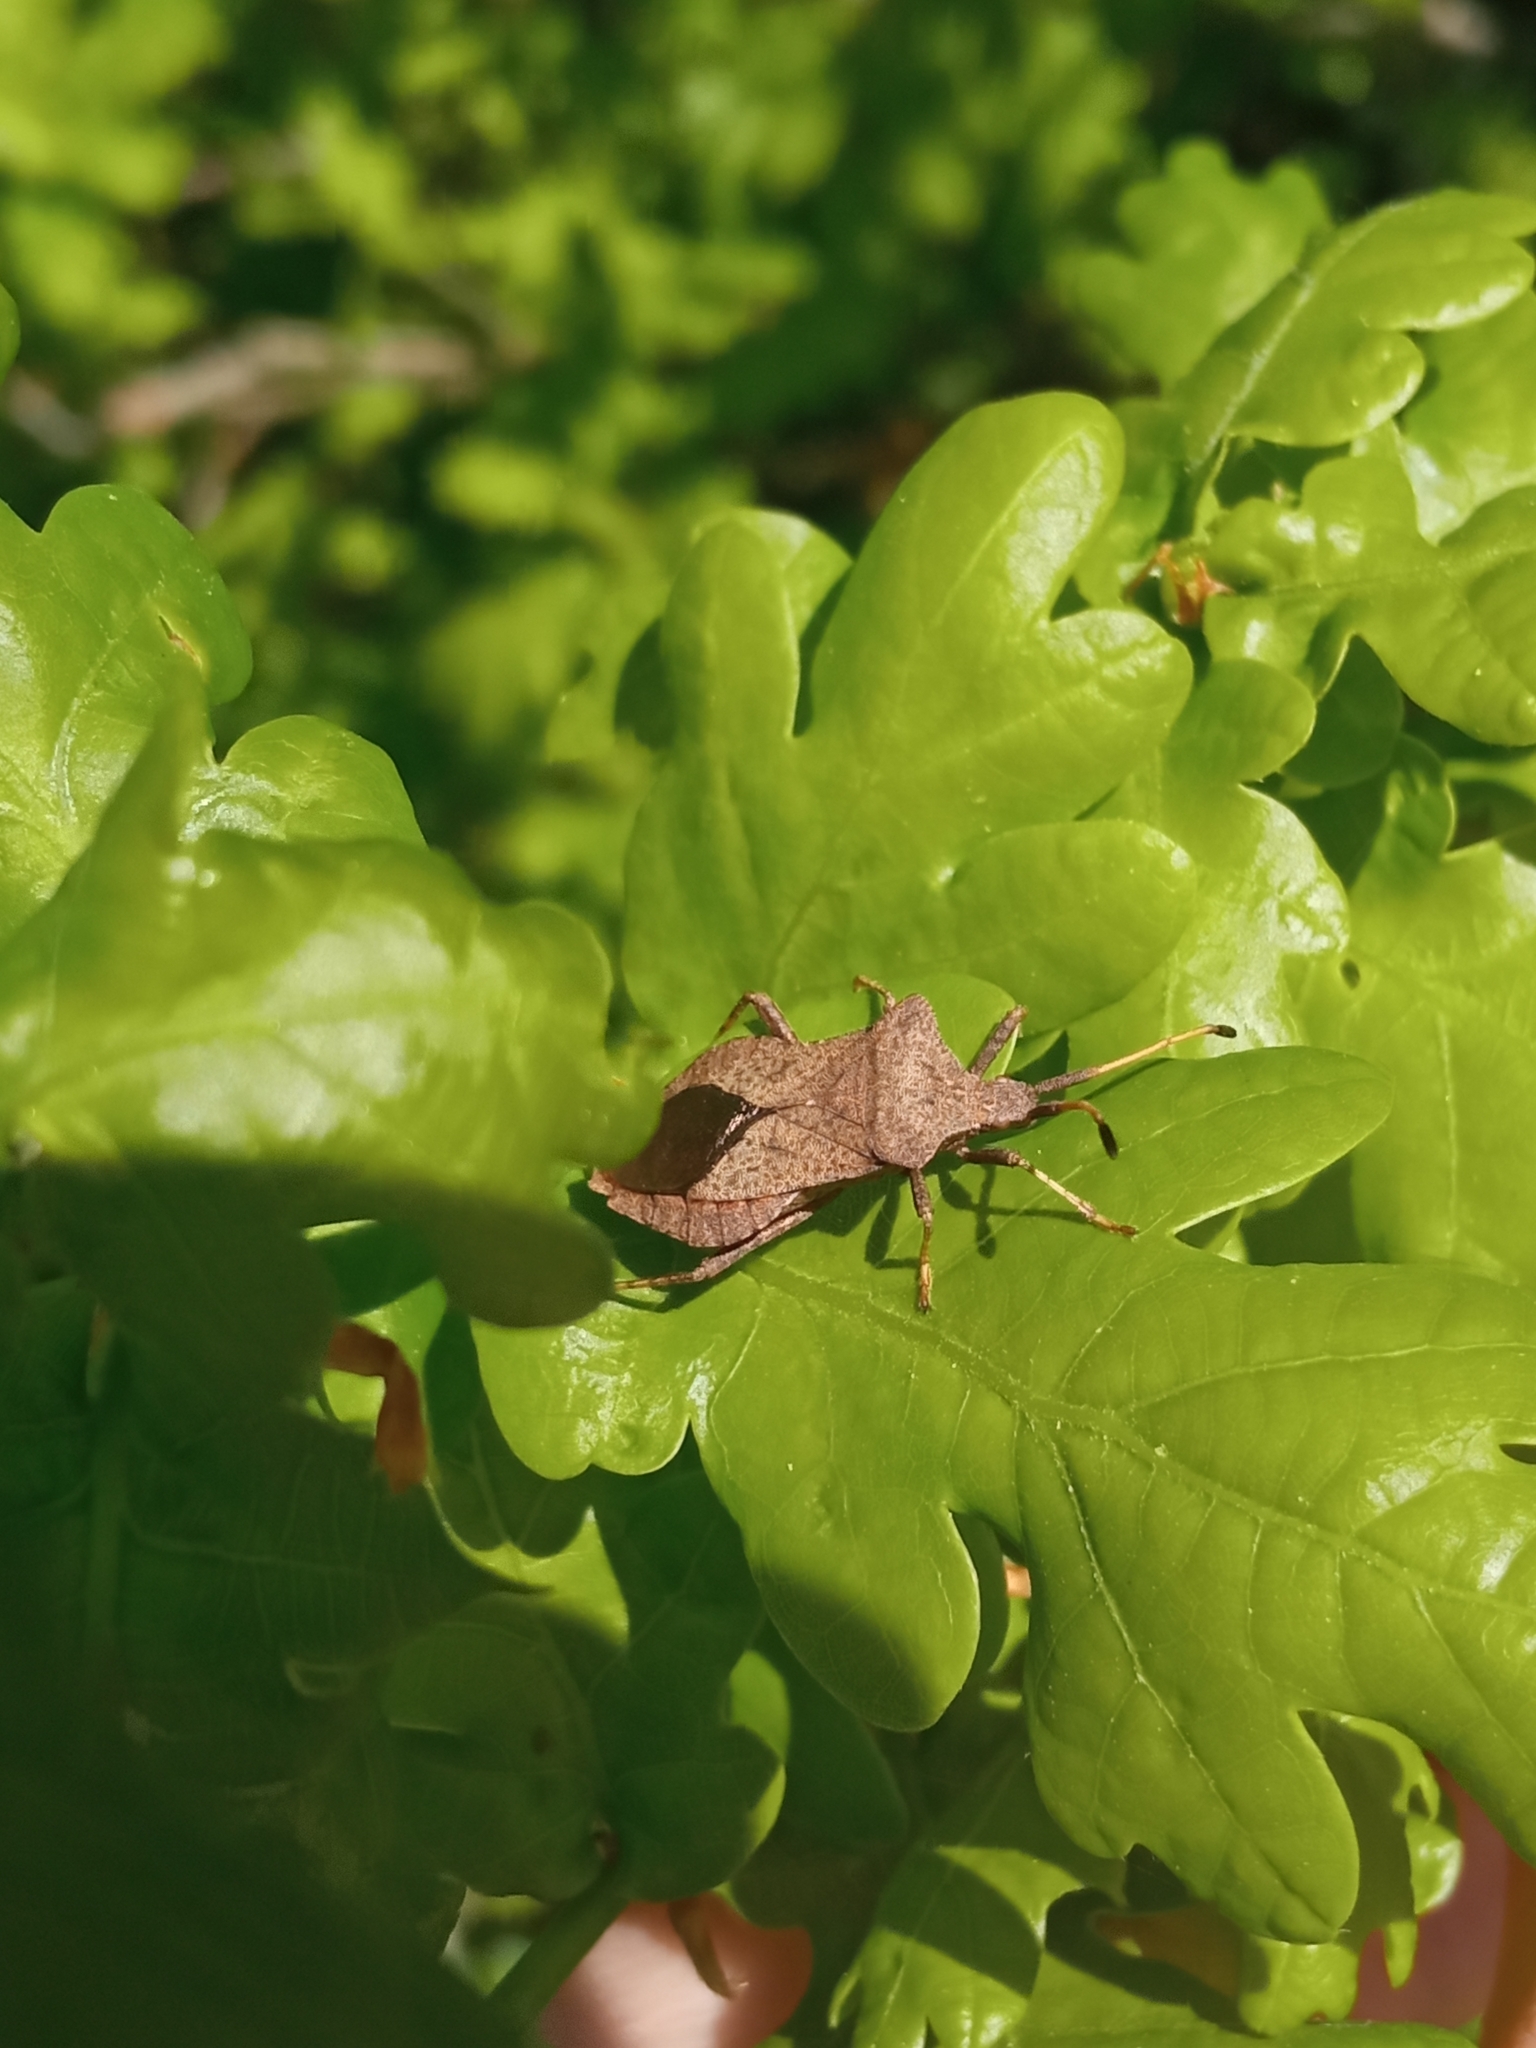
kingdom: Animalia
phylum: Arthropoda
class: Insecta
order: Hemiptera
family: Coreidae
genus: Coreus
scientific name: Coreus marginatus
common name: Dock bug
